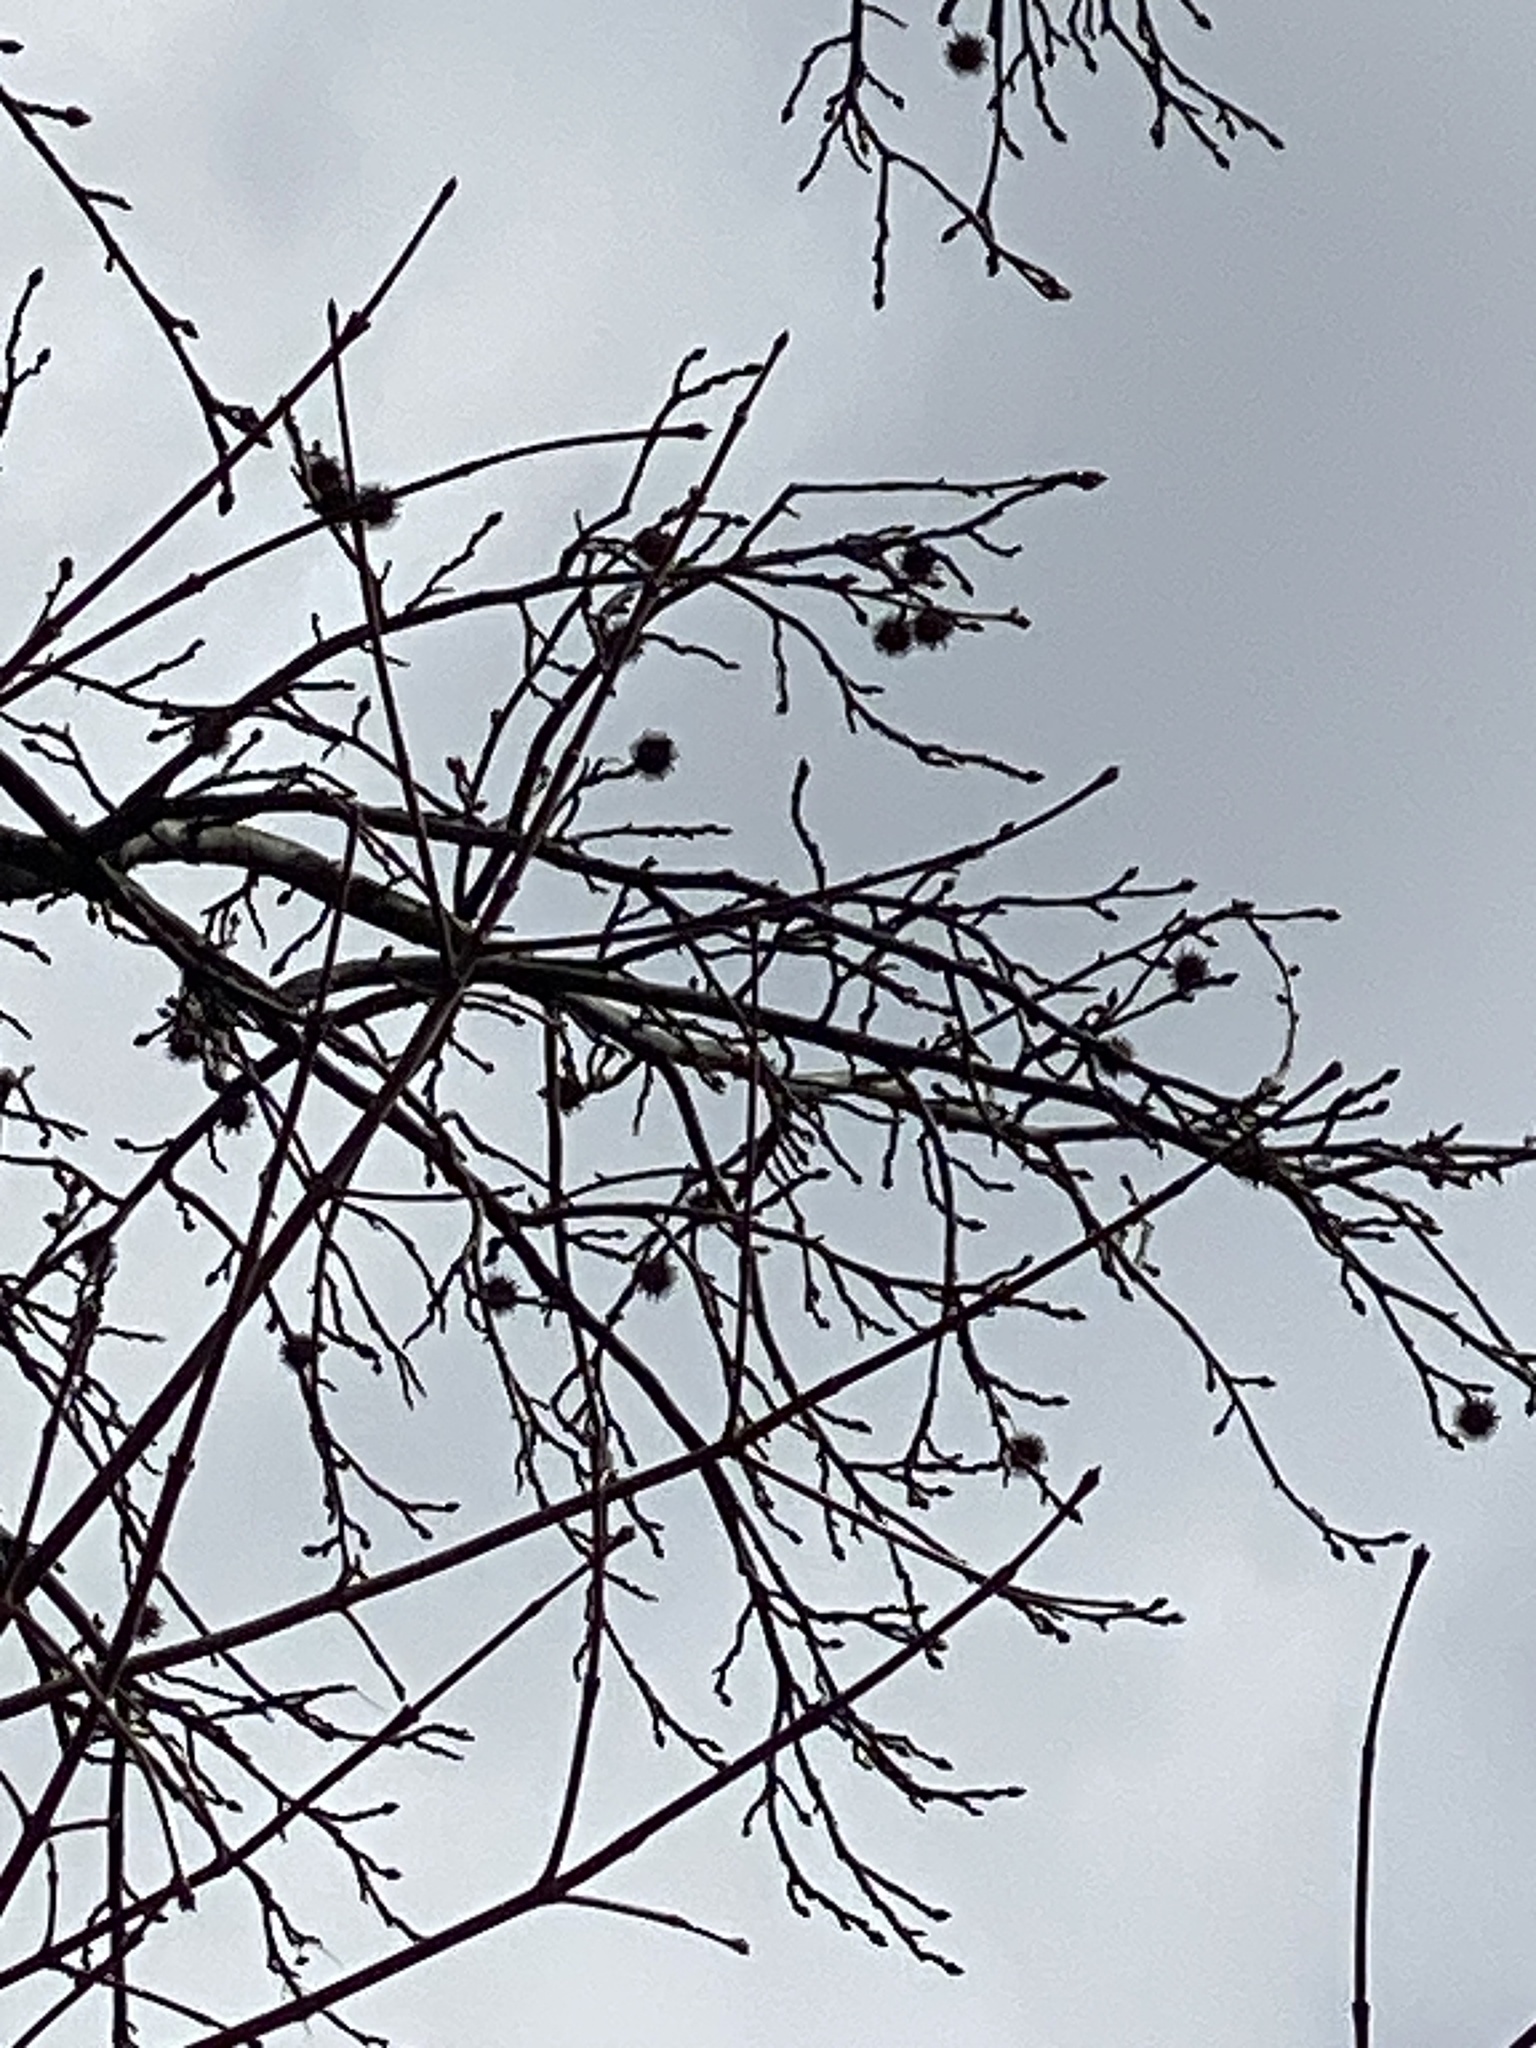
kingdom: Plantae
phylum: Tracheophyta
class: Magnoliopsida
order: Saxifragales
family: Altingiaceae
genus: Liquidambar
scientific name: Liquidambar styraciflua
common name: Sweet gum
